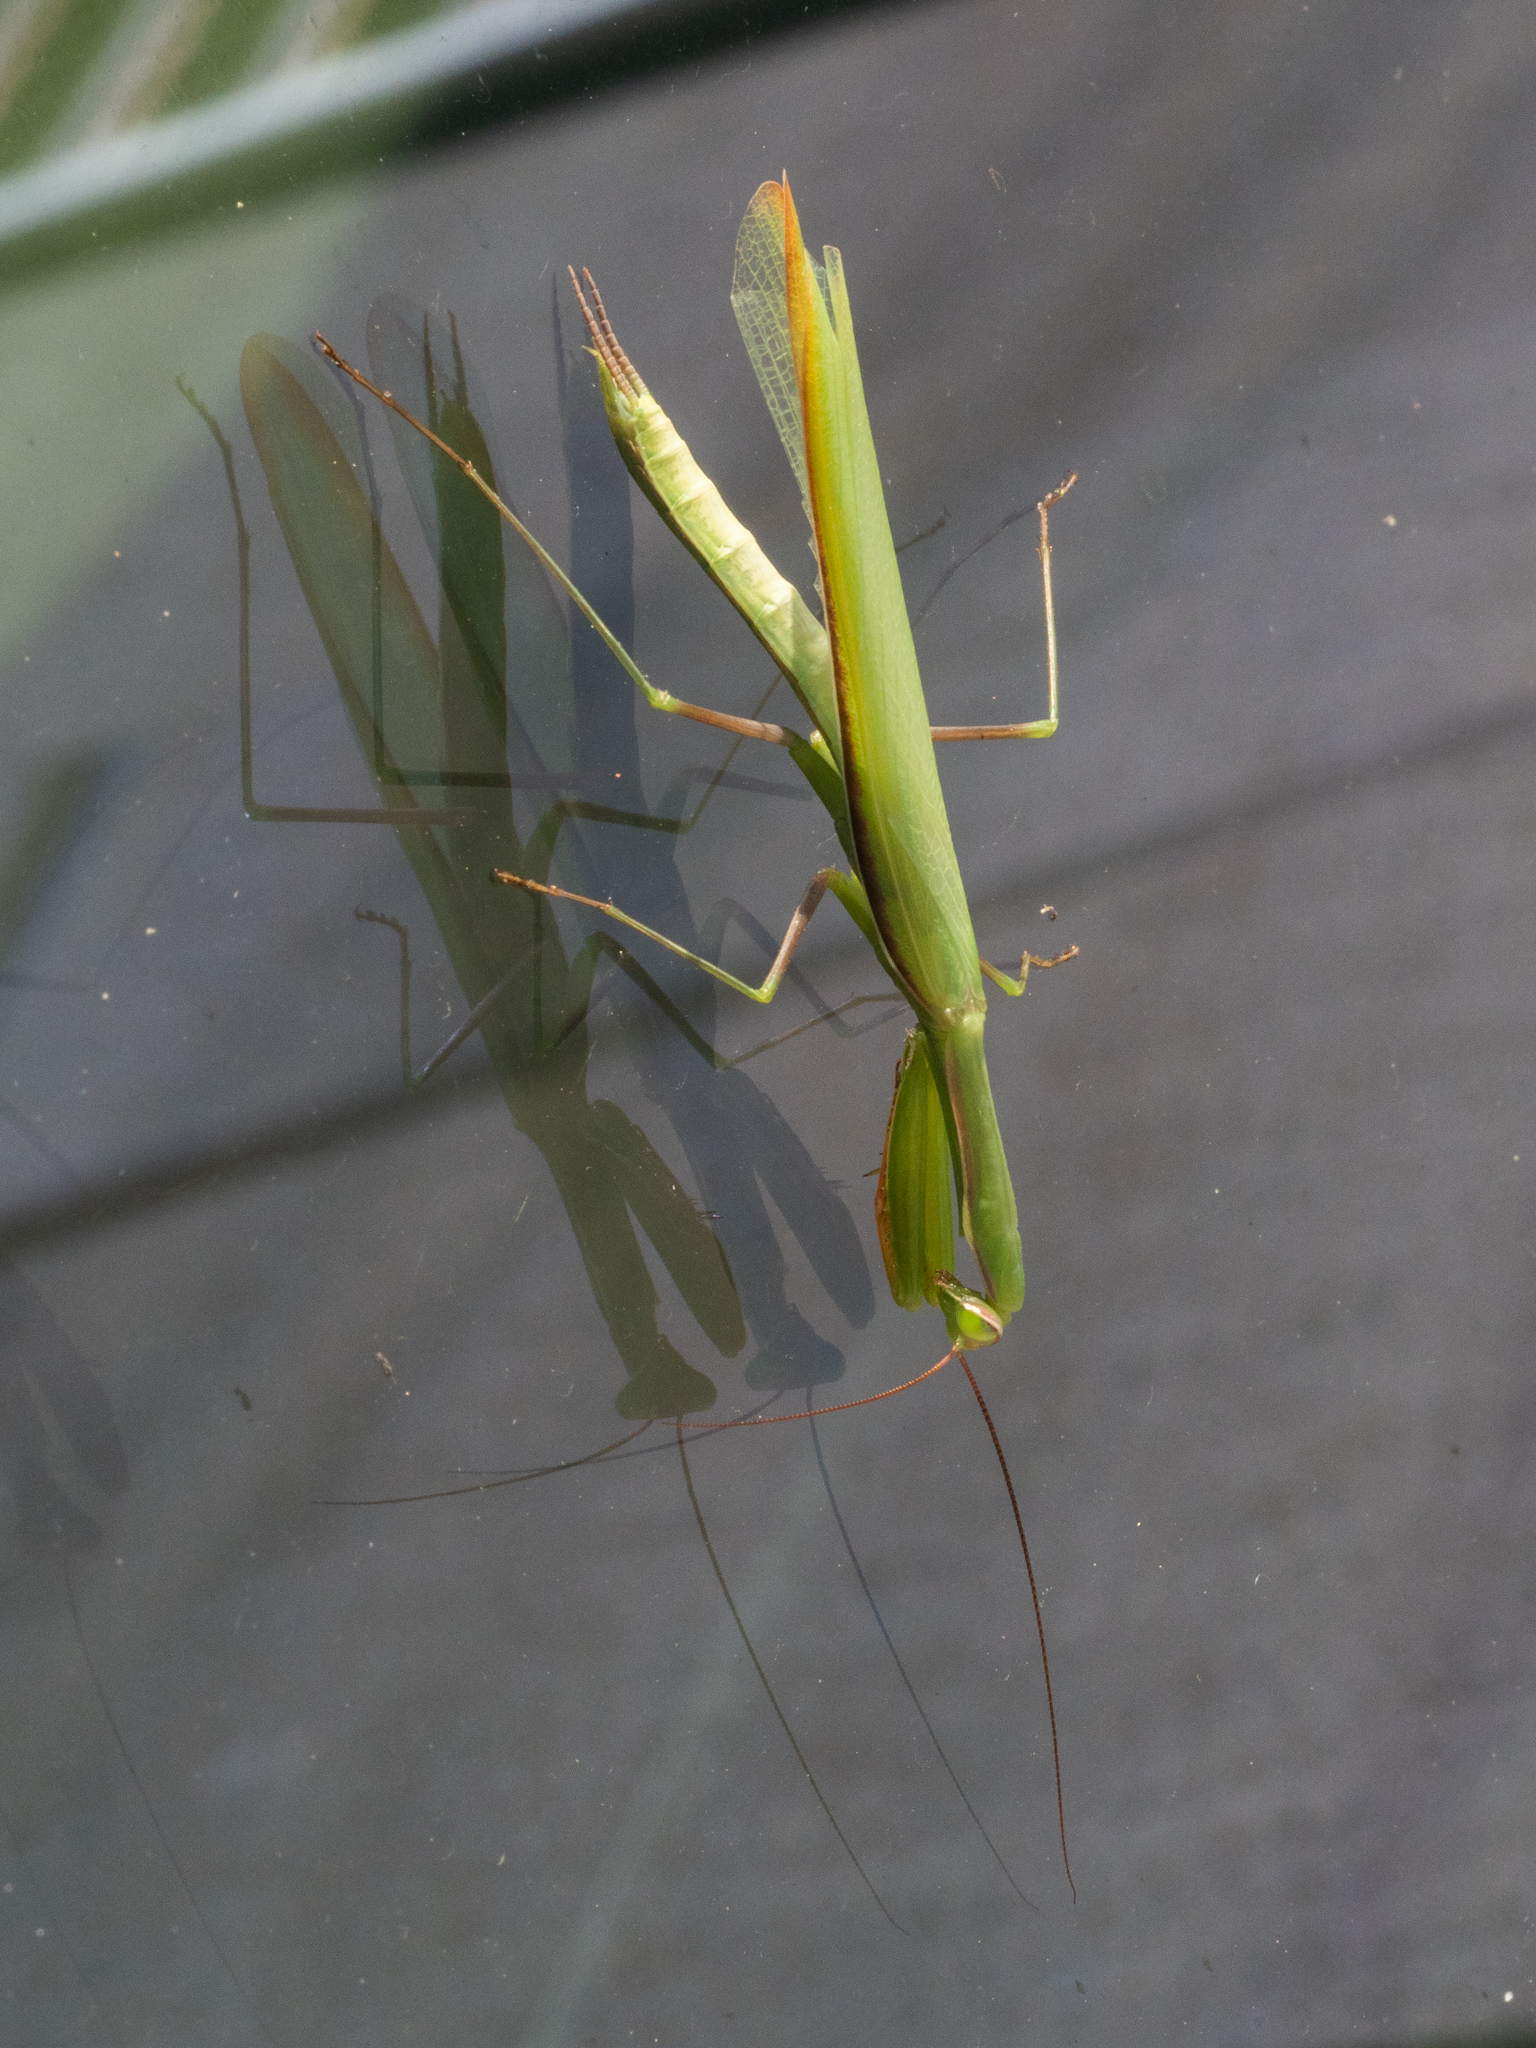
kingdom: Animalia
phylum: Arthropoda
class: Insecta
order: Mantodea
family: Mantidae
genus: Mantis
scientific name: Mantis religiosa
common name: Praying mantis
